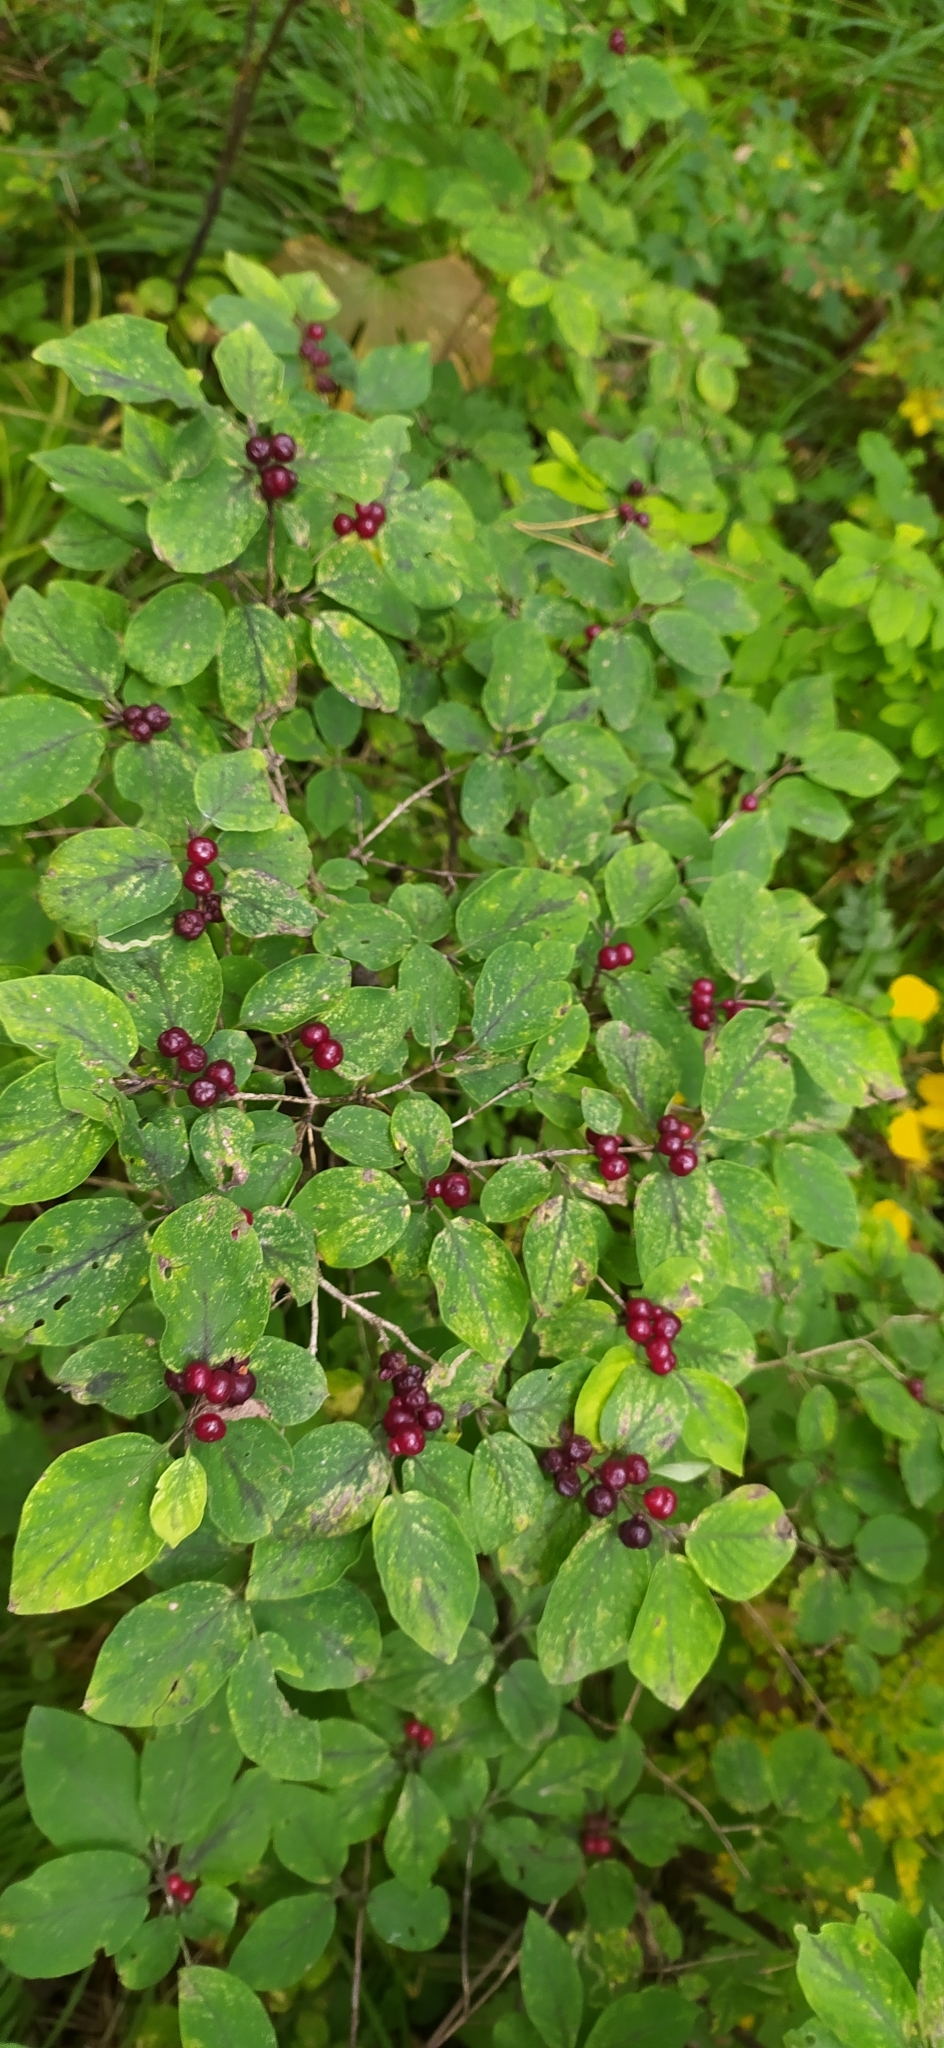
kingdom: Plantae
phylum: Tracheophyta
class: Magnoliopsida
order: Dipsacales
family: Caprifoliaceae
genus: Lonicera
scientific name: Lonicera xylosteum
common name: Fly honeysuckle
